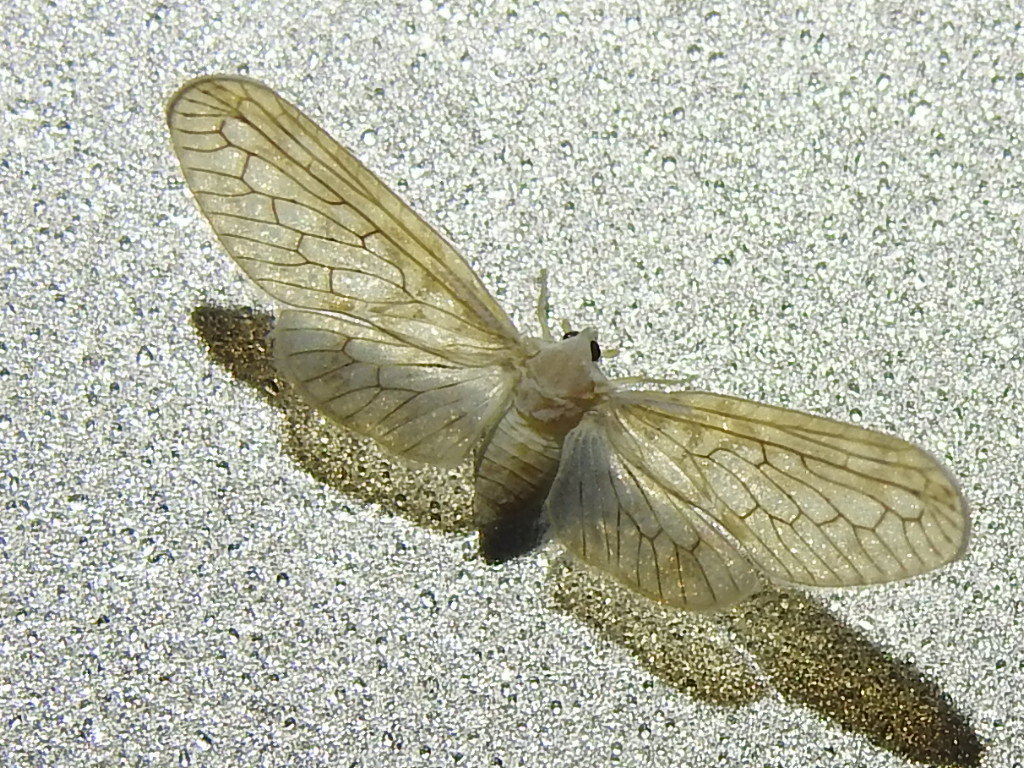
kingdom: Animalia
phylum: Arthropoda
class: Insecta
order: Hemiptera
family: Derbidae
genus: Paramysidia
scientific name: Paramysidia mississippiensis
